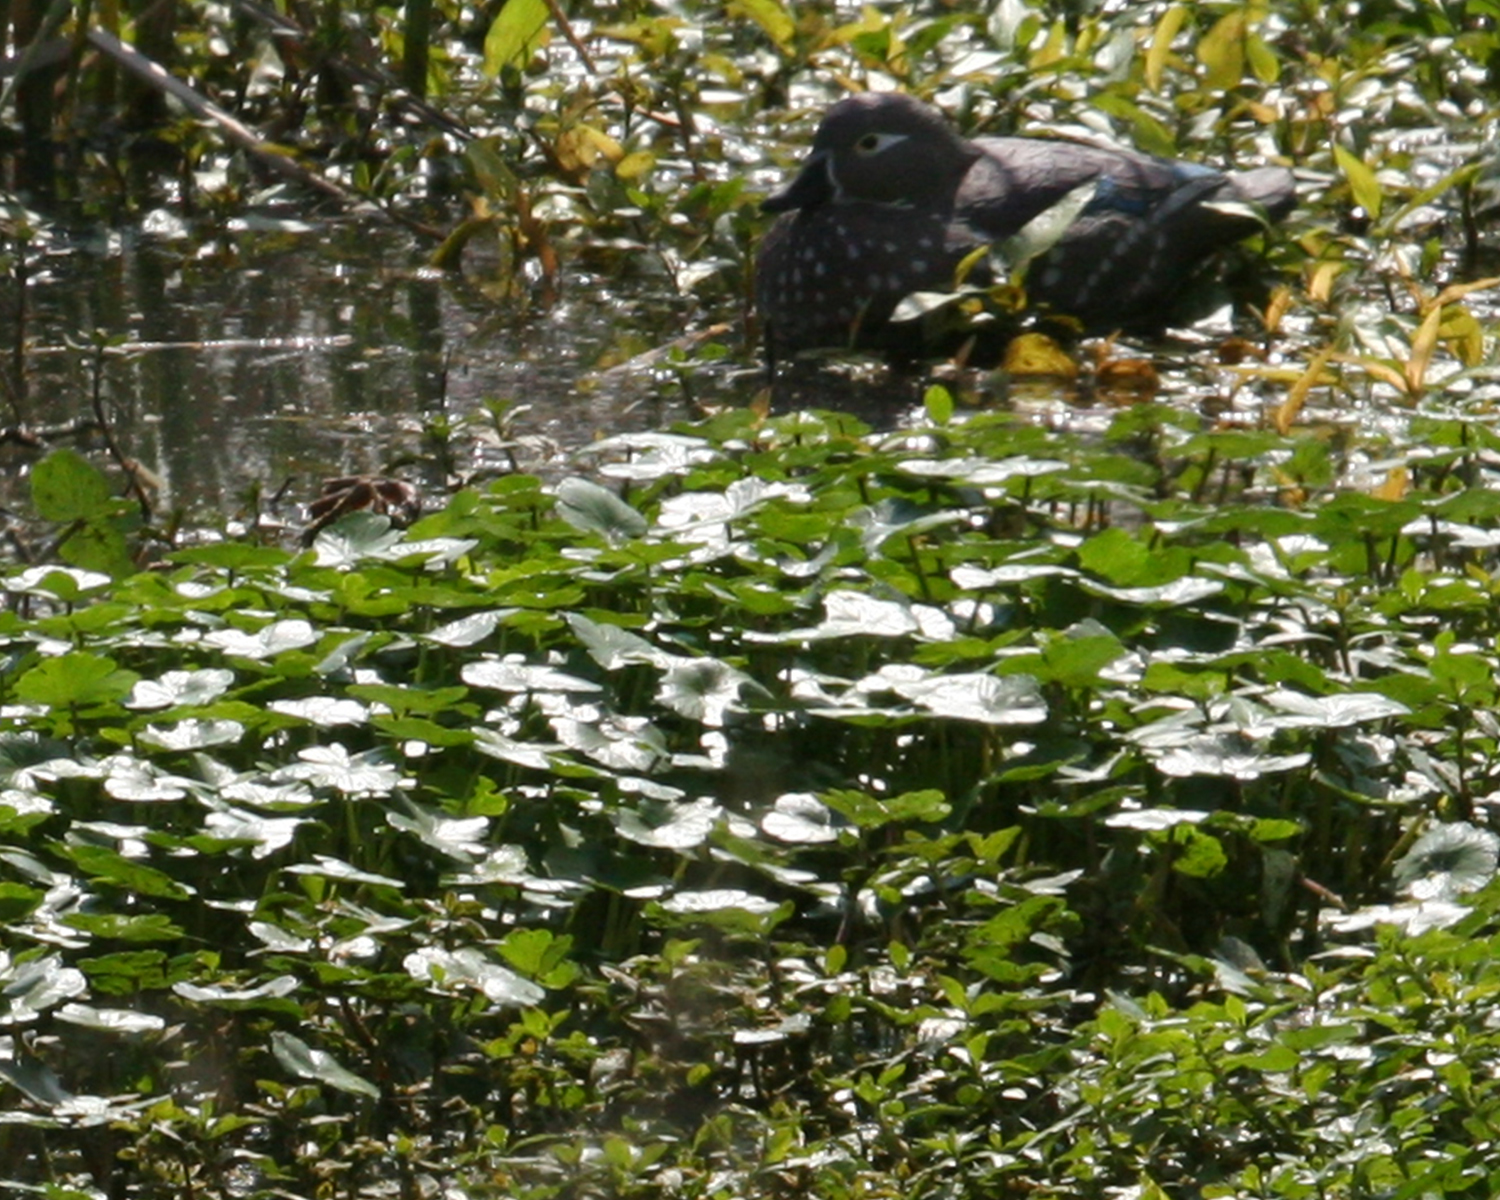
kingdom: Animalia
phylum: Chordata
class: Aves
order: Anseriformes
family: Anatidae
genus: Aix
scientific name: Aix sponsa
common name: Wood duck
